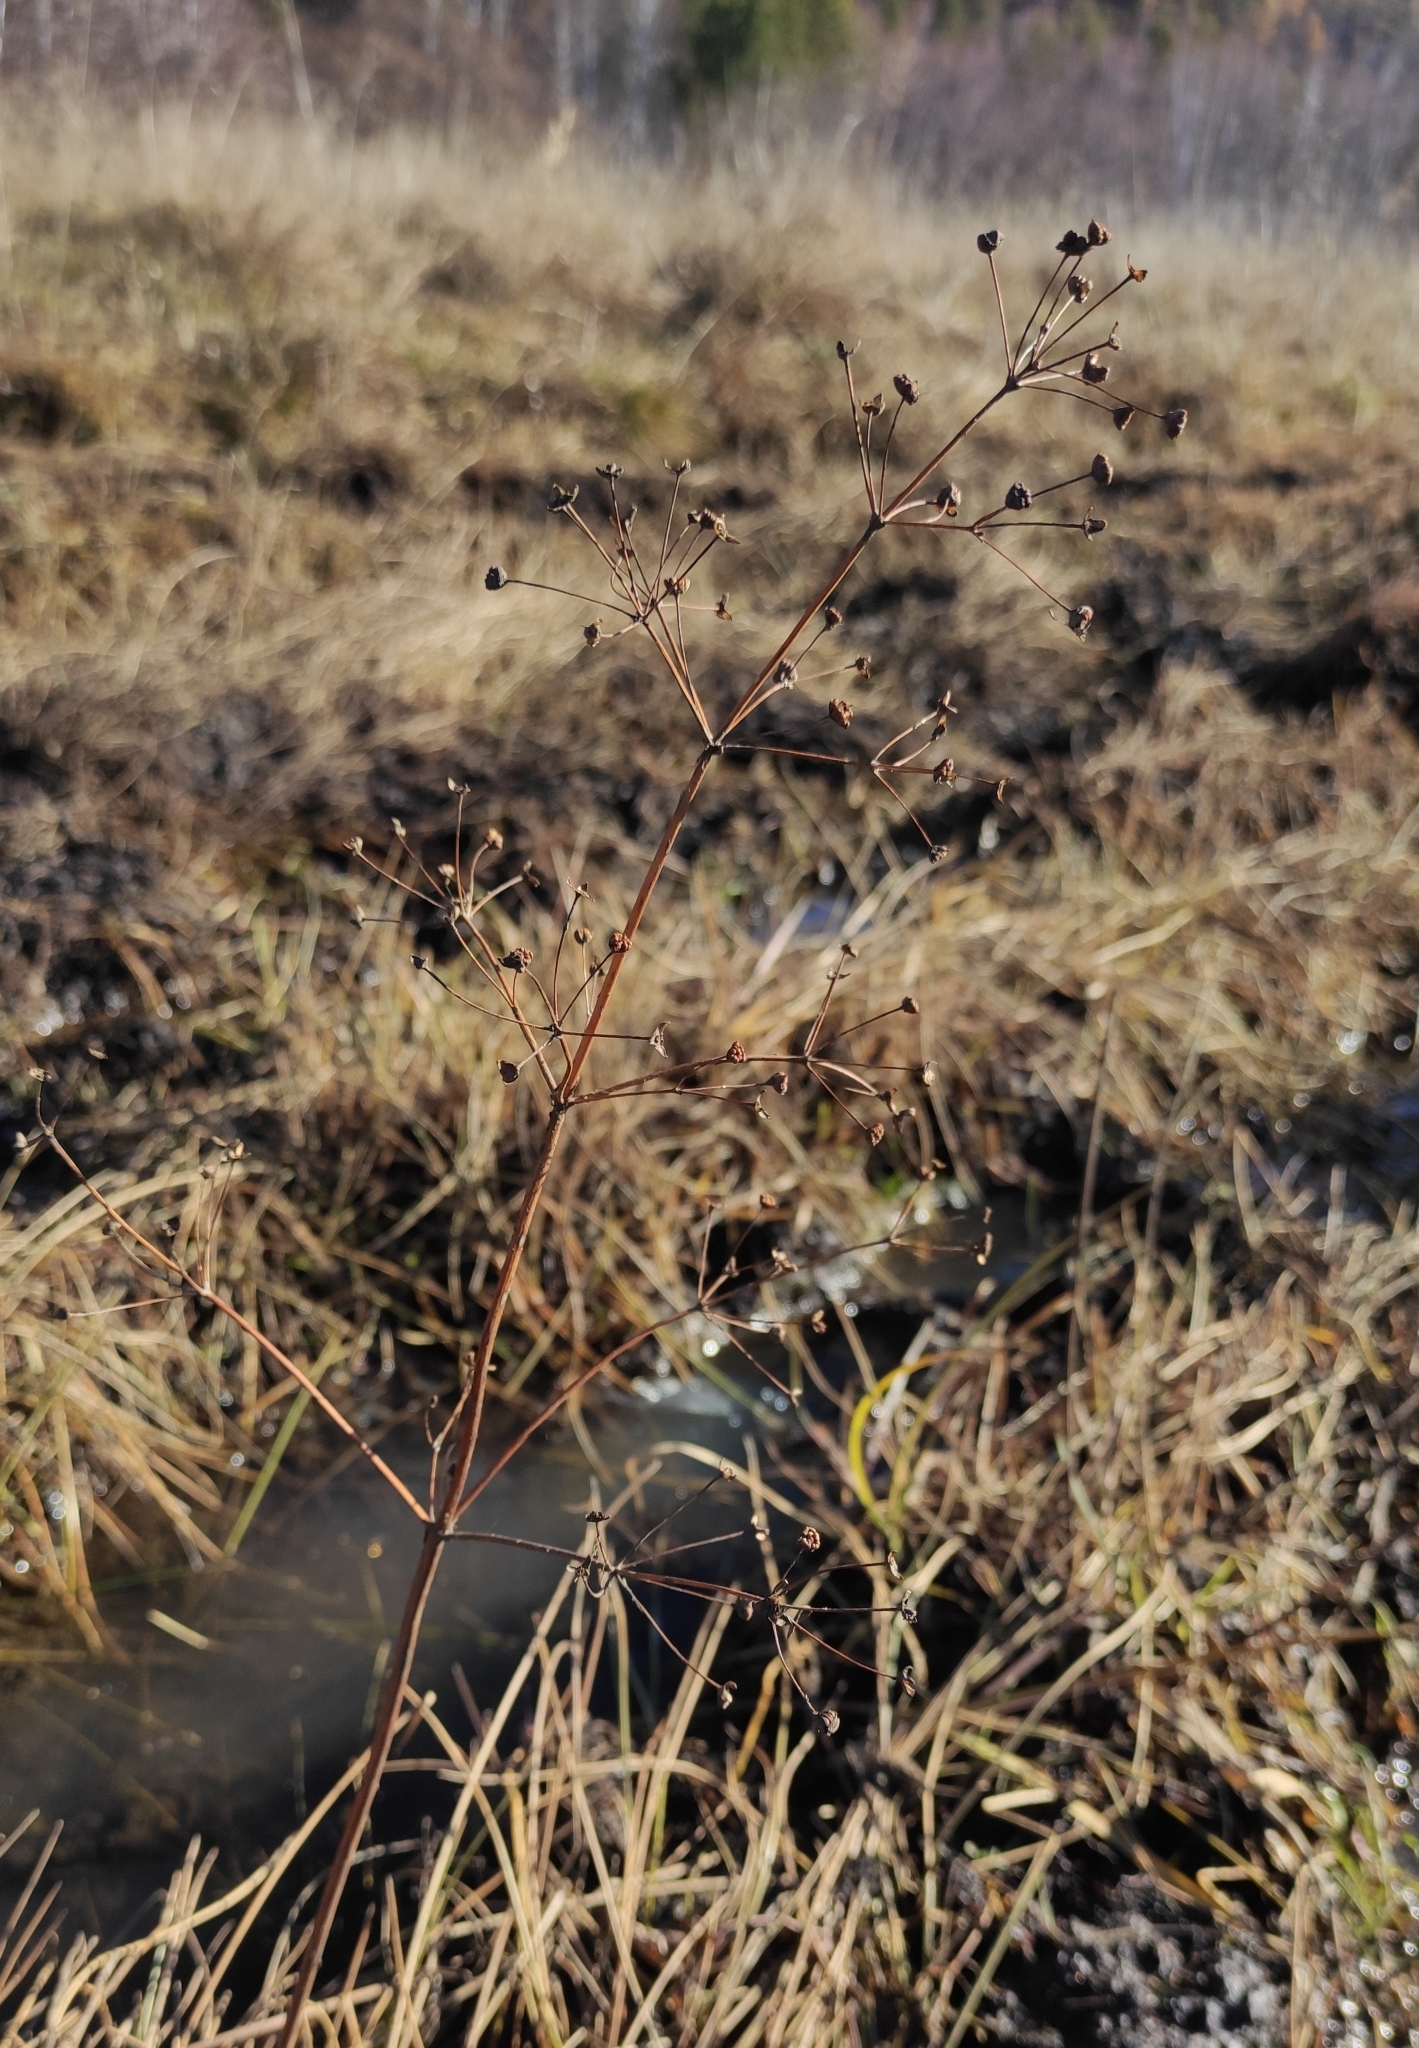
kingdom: Plantae
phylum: Tracheophyta
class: Liliopsida
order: Alismatales
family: Alismataceae
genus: Alisma
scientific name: Alisma plantago-aquatica
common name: Water-plantain
